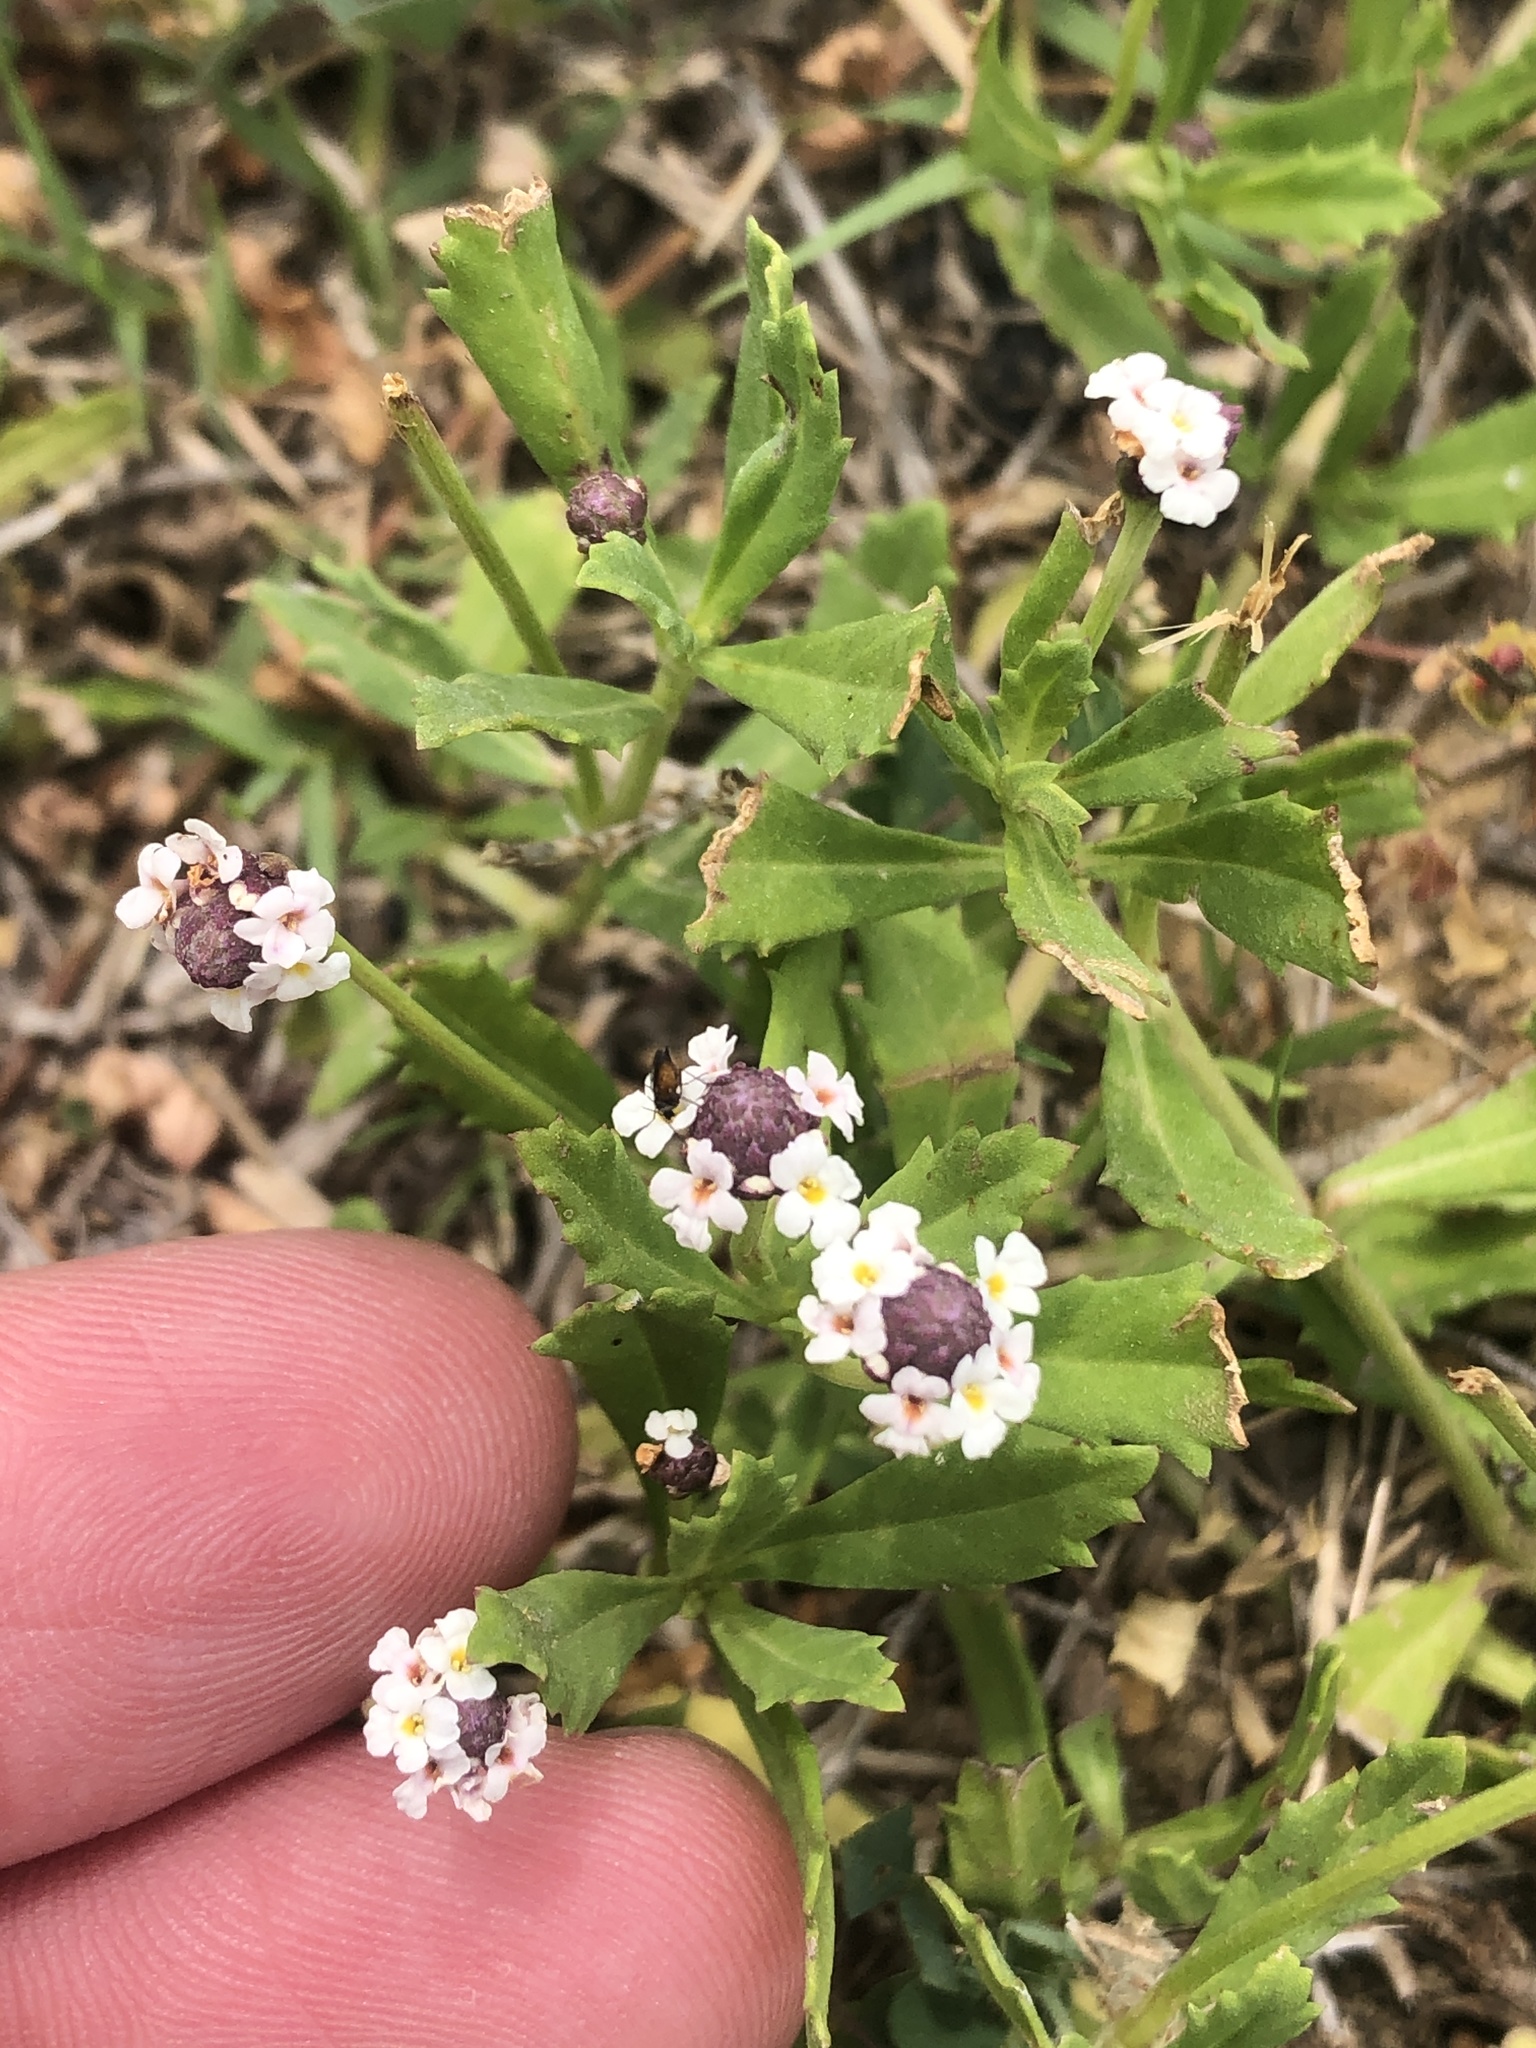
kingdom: Plantae
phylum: Tracheophyta
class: Magnoliopsida
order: Lamiales
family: Verbenaceae
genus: Phyla
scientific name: Phyla nodiflora
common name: Frogfruit
